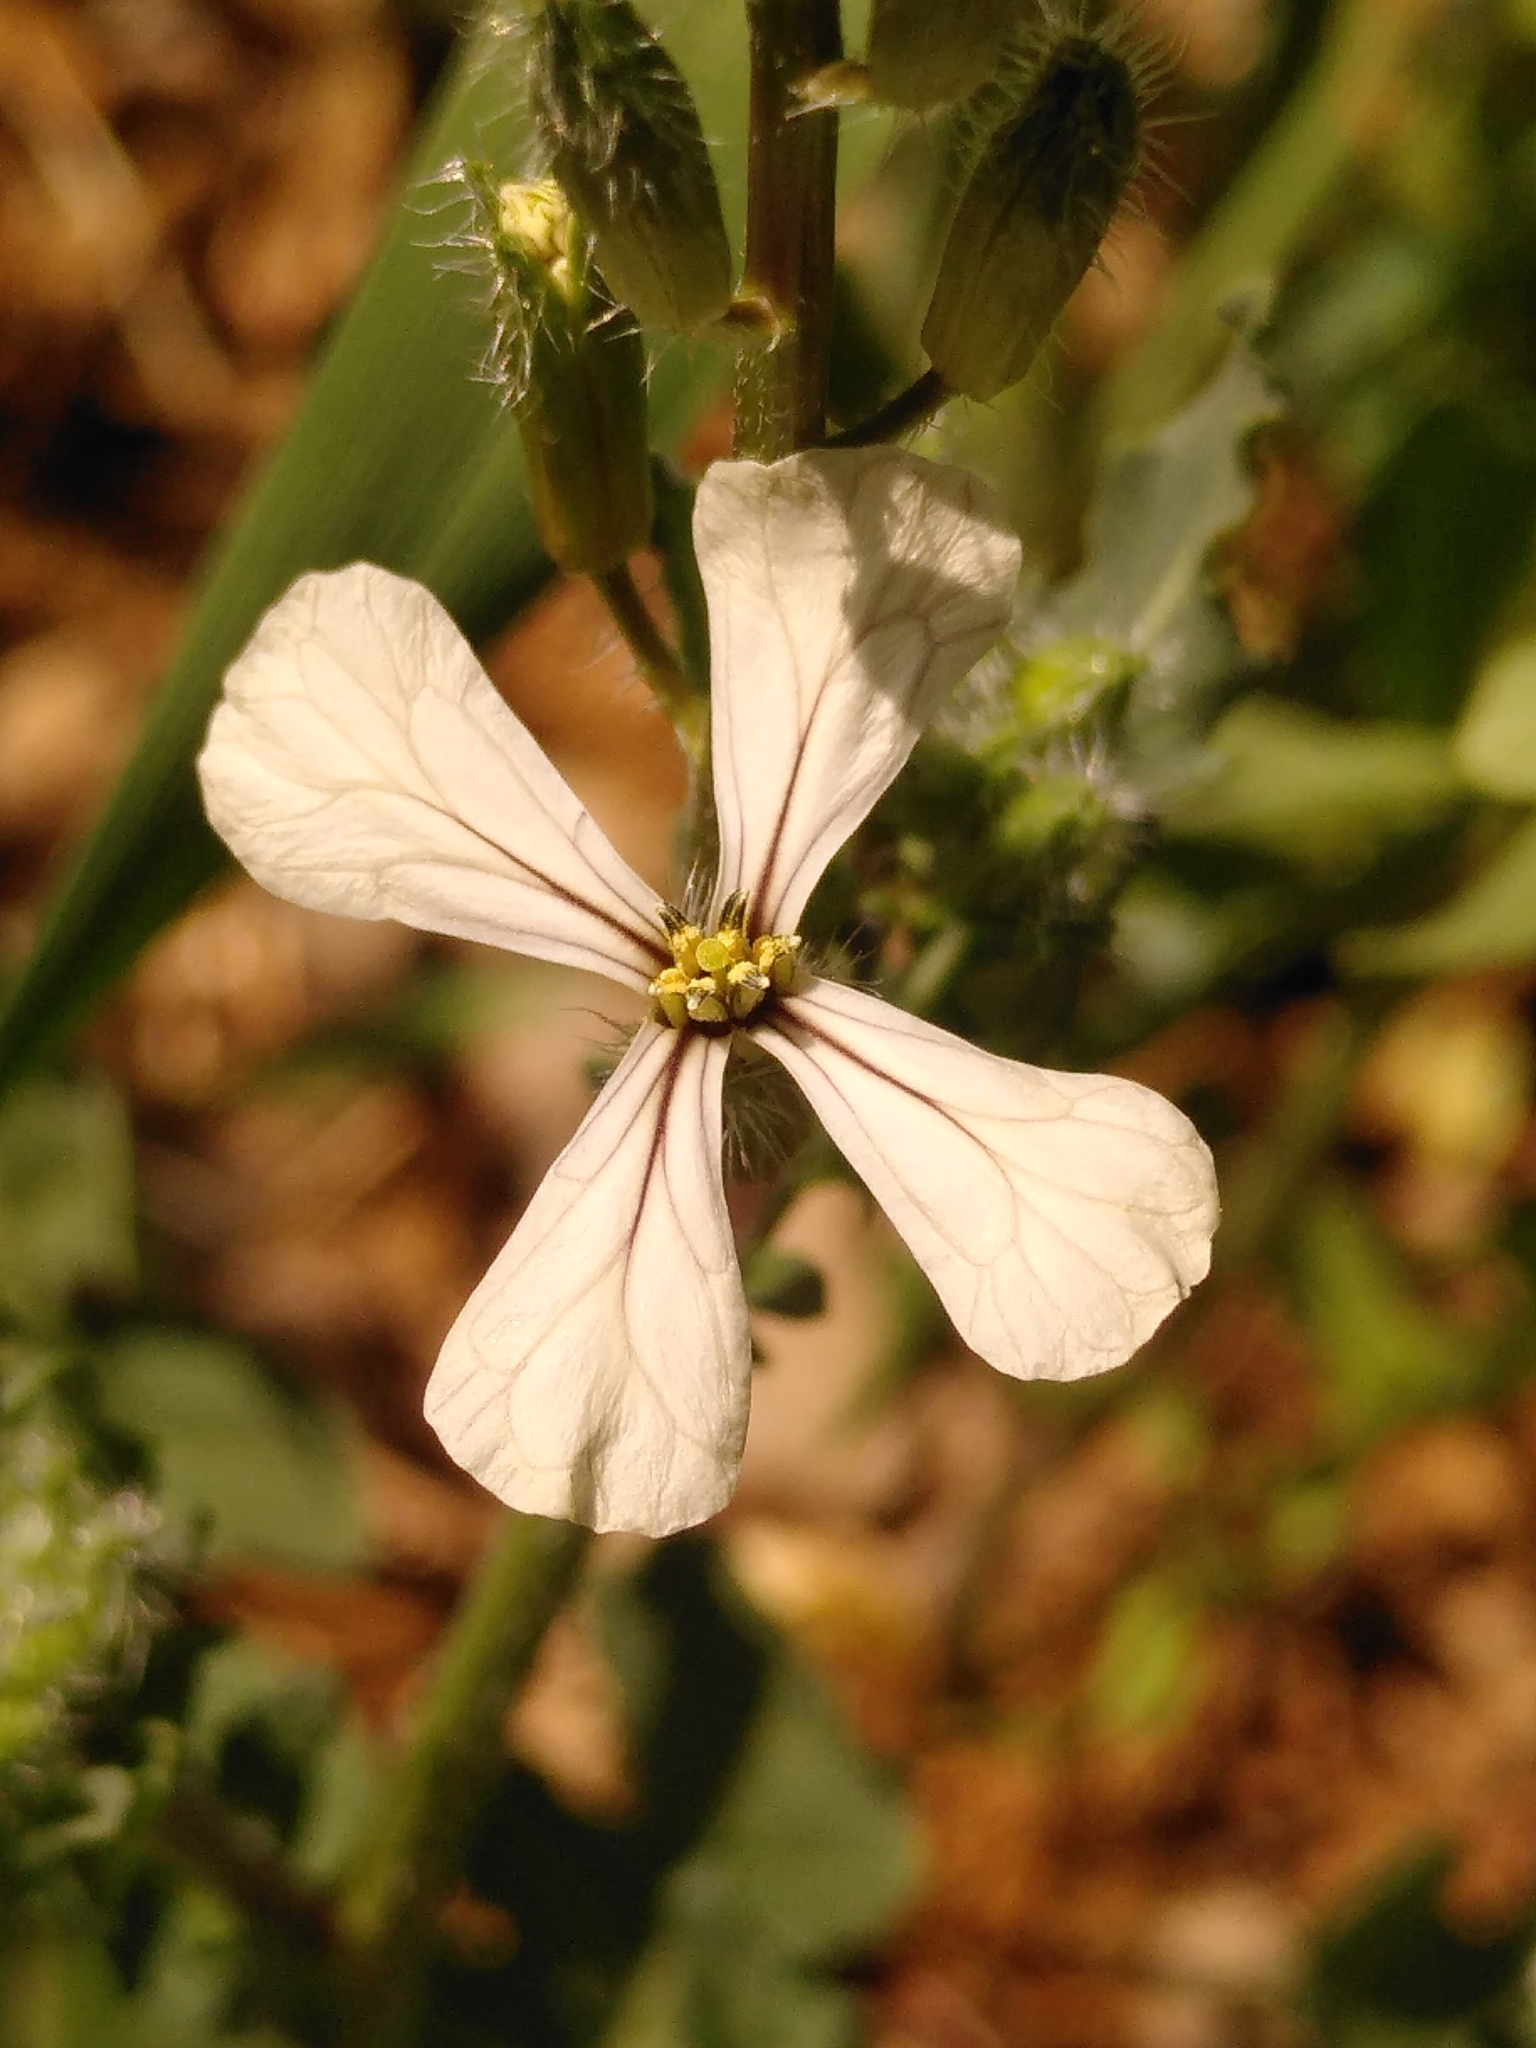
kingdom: Plantae
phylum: Tracheophyta
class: Magnoliopsida
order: Brassicales
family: Brassicaceae
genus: Eruca
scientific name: Eruca vesicaria
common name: Garden rocket
